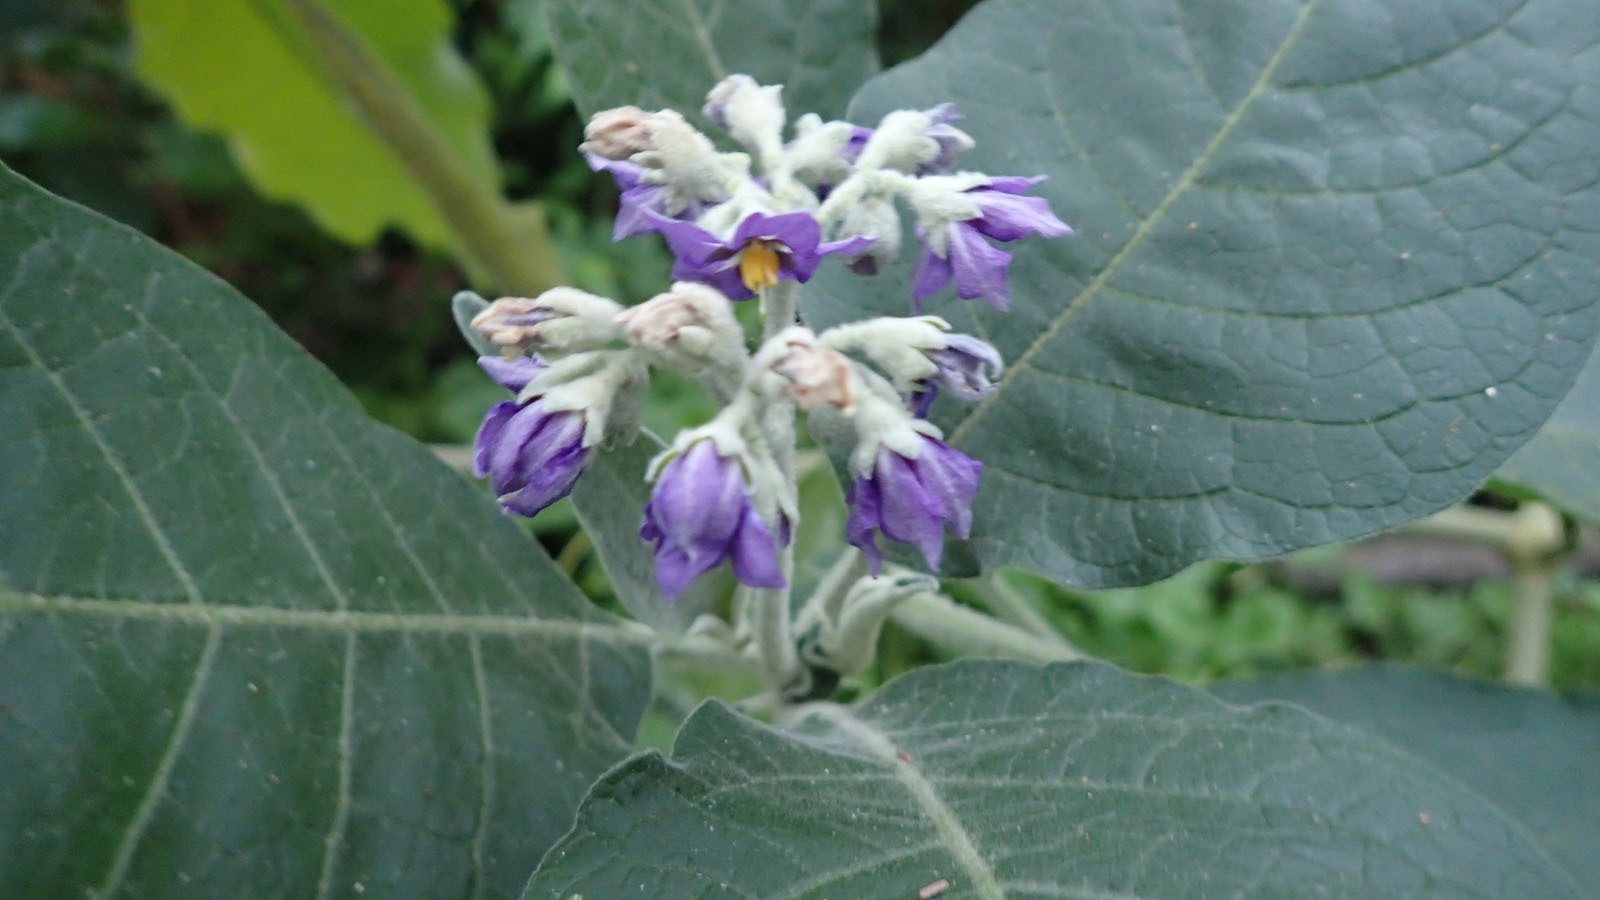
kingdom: Plantae
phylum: Tracheophyta
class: Magnoliopsida
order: Solanales
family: Solanaceae
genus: Solanum
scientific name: Solanum mauritianum
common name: Earleaf nightshade
